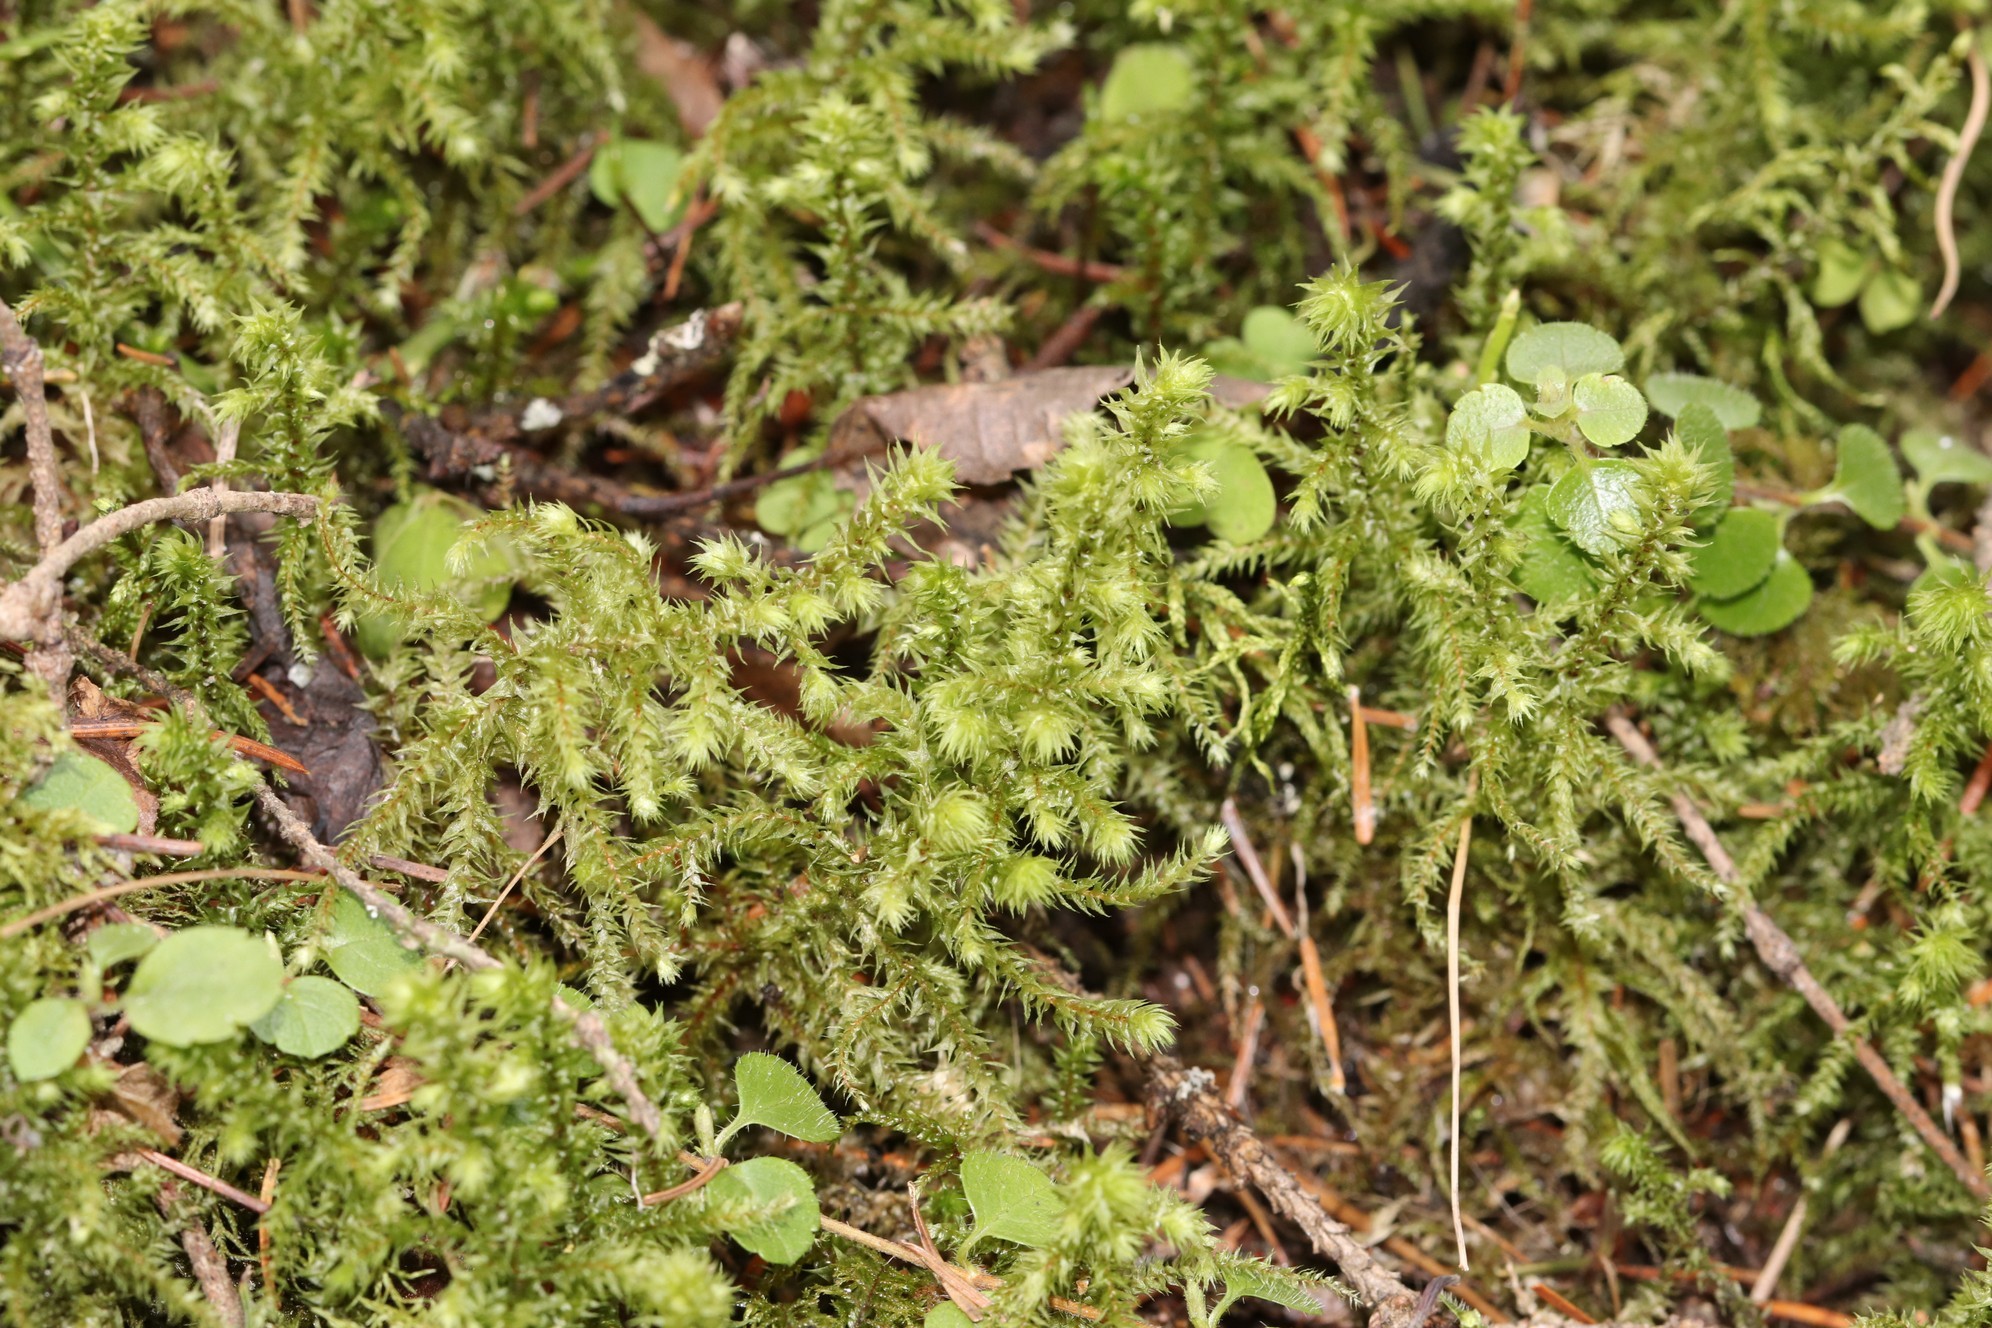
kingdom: Plantae
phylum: Bryophyta
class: Bryopsida
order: Hypnales
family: Hylocomiaceae
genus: Hylocomiadelphus
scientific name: Hylocomiadelphus triquetrus
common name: Rough goose neck moss
